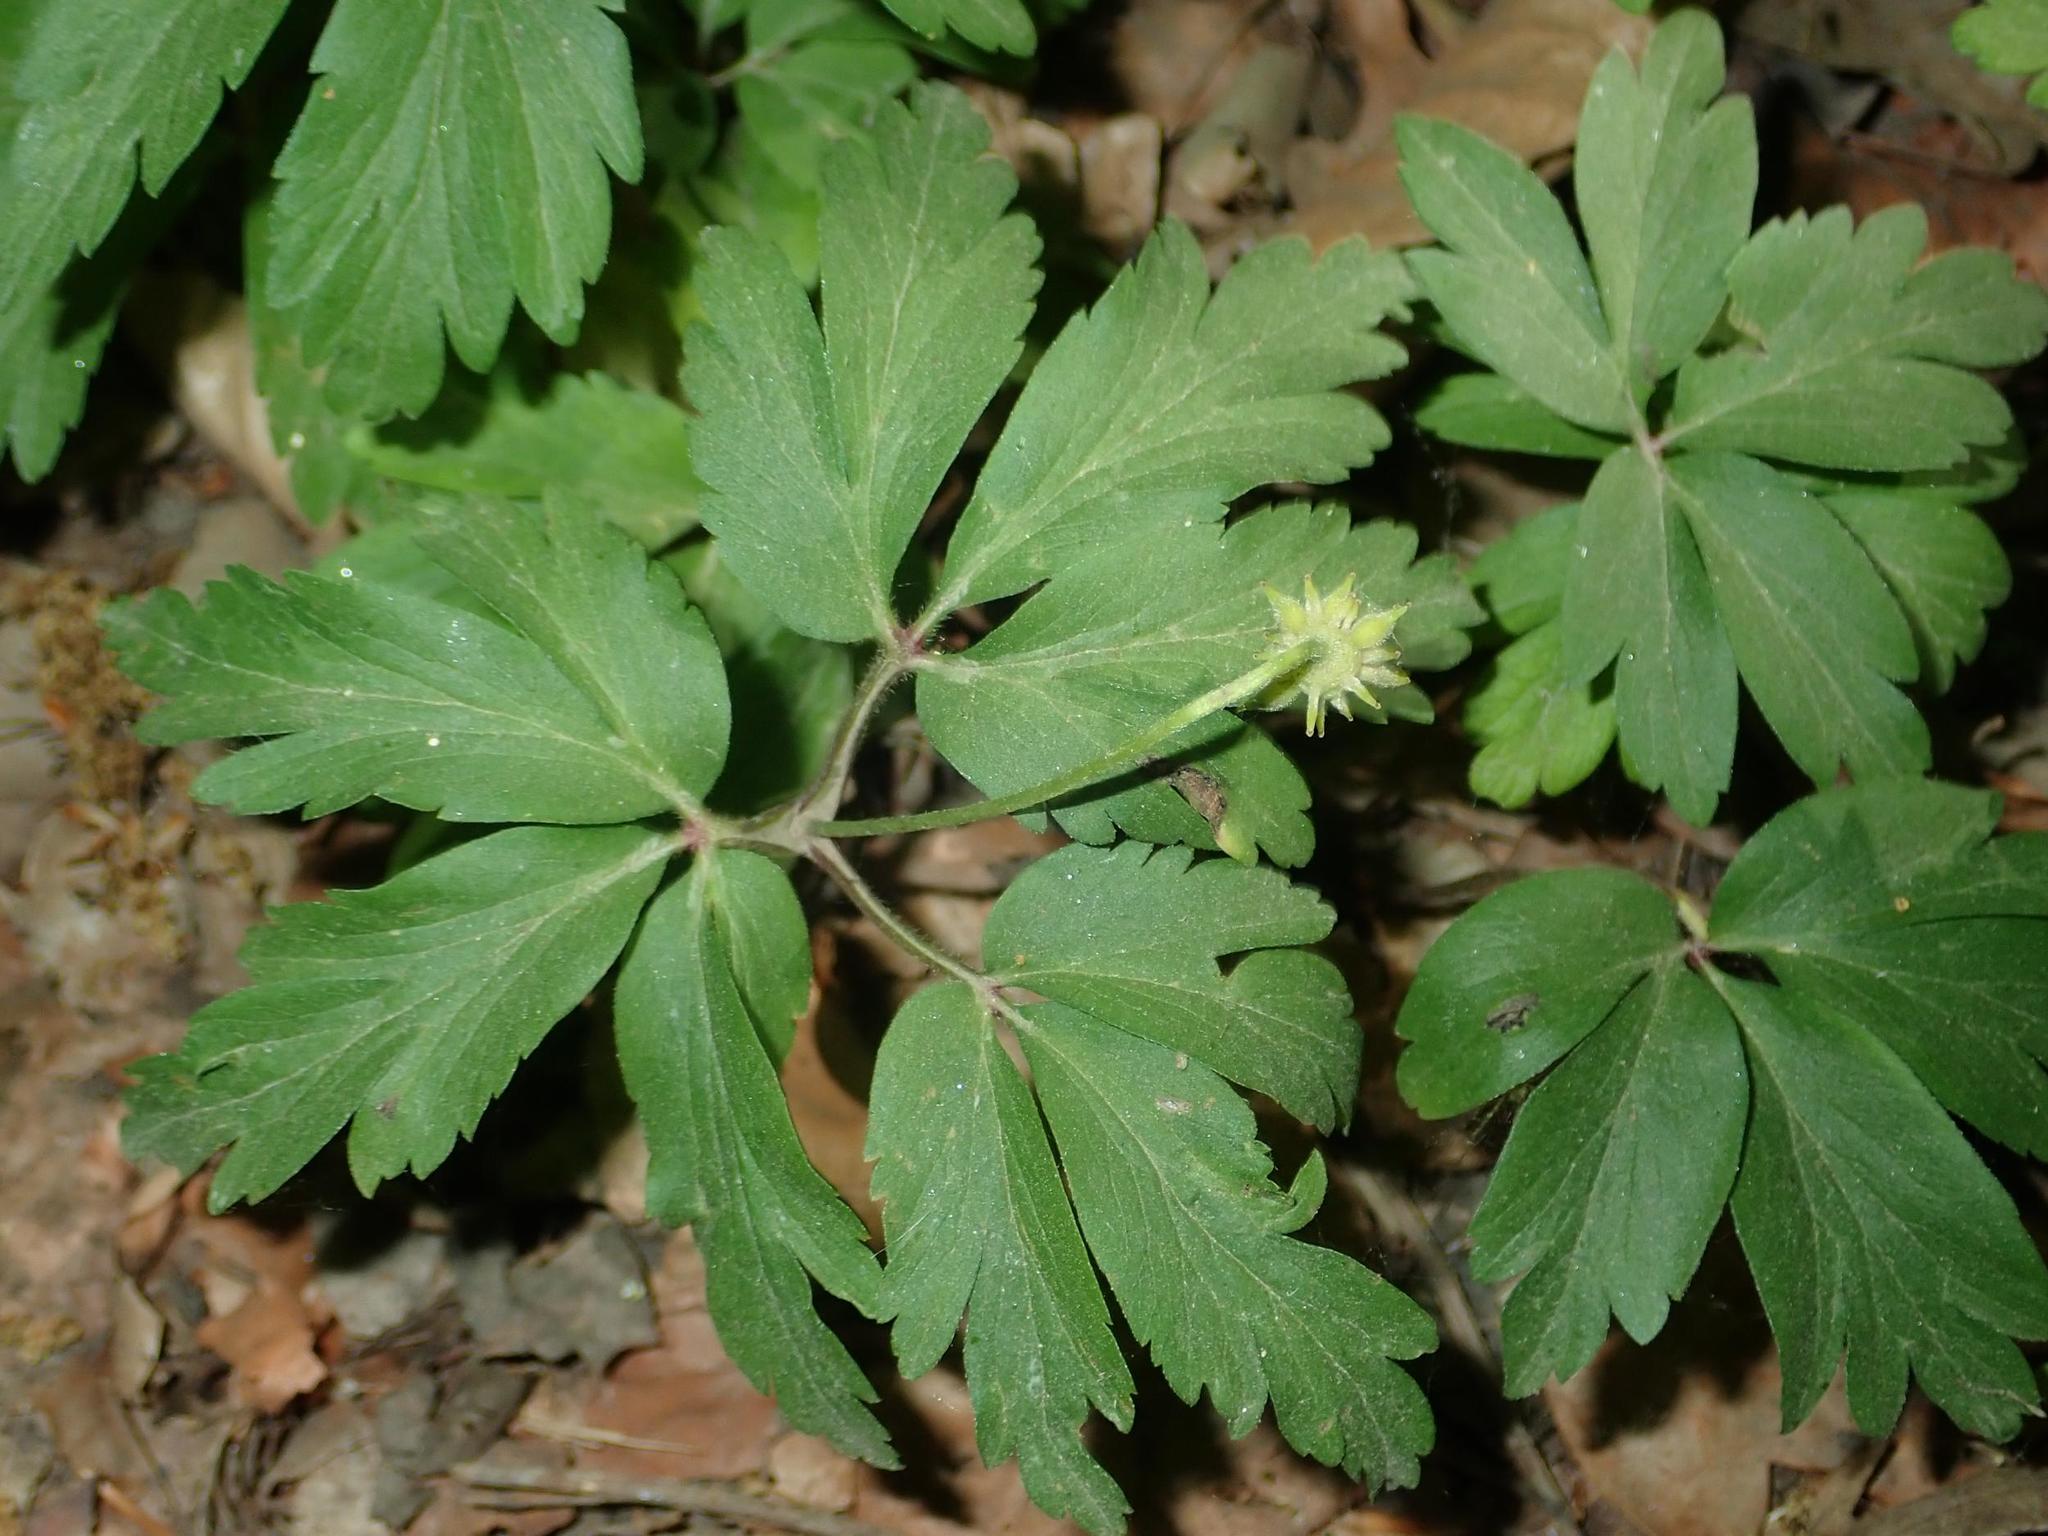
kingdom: Plantae
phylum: Tracheophyta
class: Magnoliopsida
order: Ranunculales
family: Ranunculaceae
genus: Anemone
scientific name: Anemone nemorosa
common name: Wood anemone
